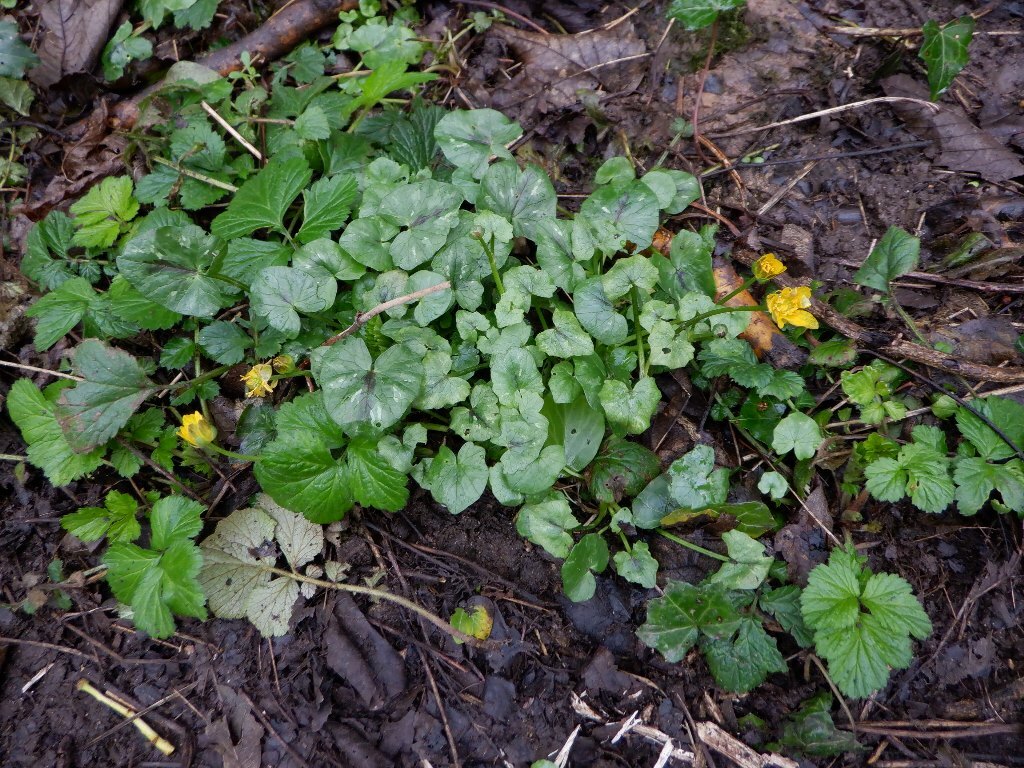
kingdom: Plantae
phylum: Tracheophyta
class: Magnoliopsida
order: Ranunculales
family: Ranunculaceae
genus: Ficaria
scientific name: Ficaria verna
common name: Lesser celandine
